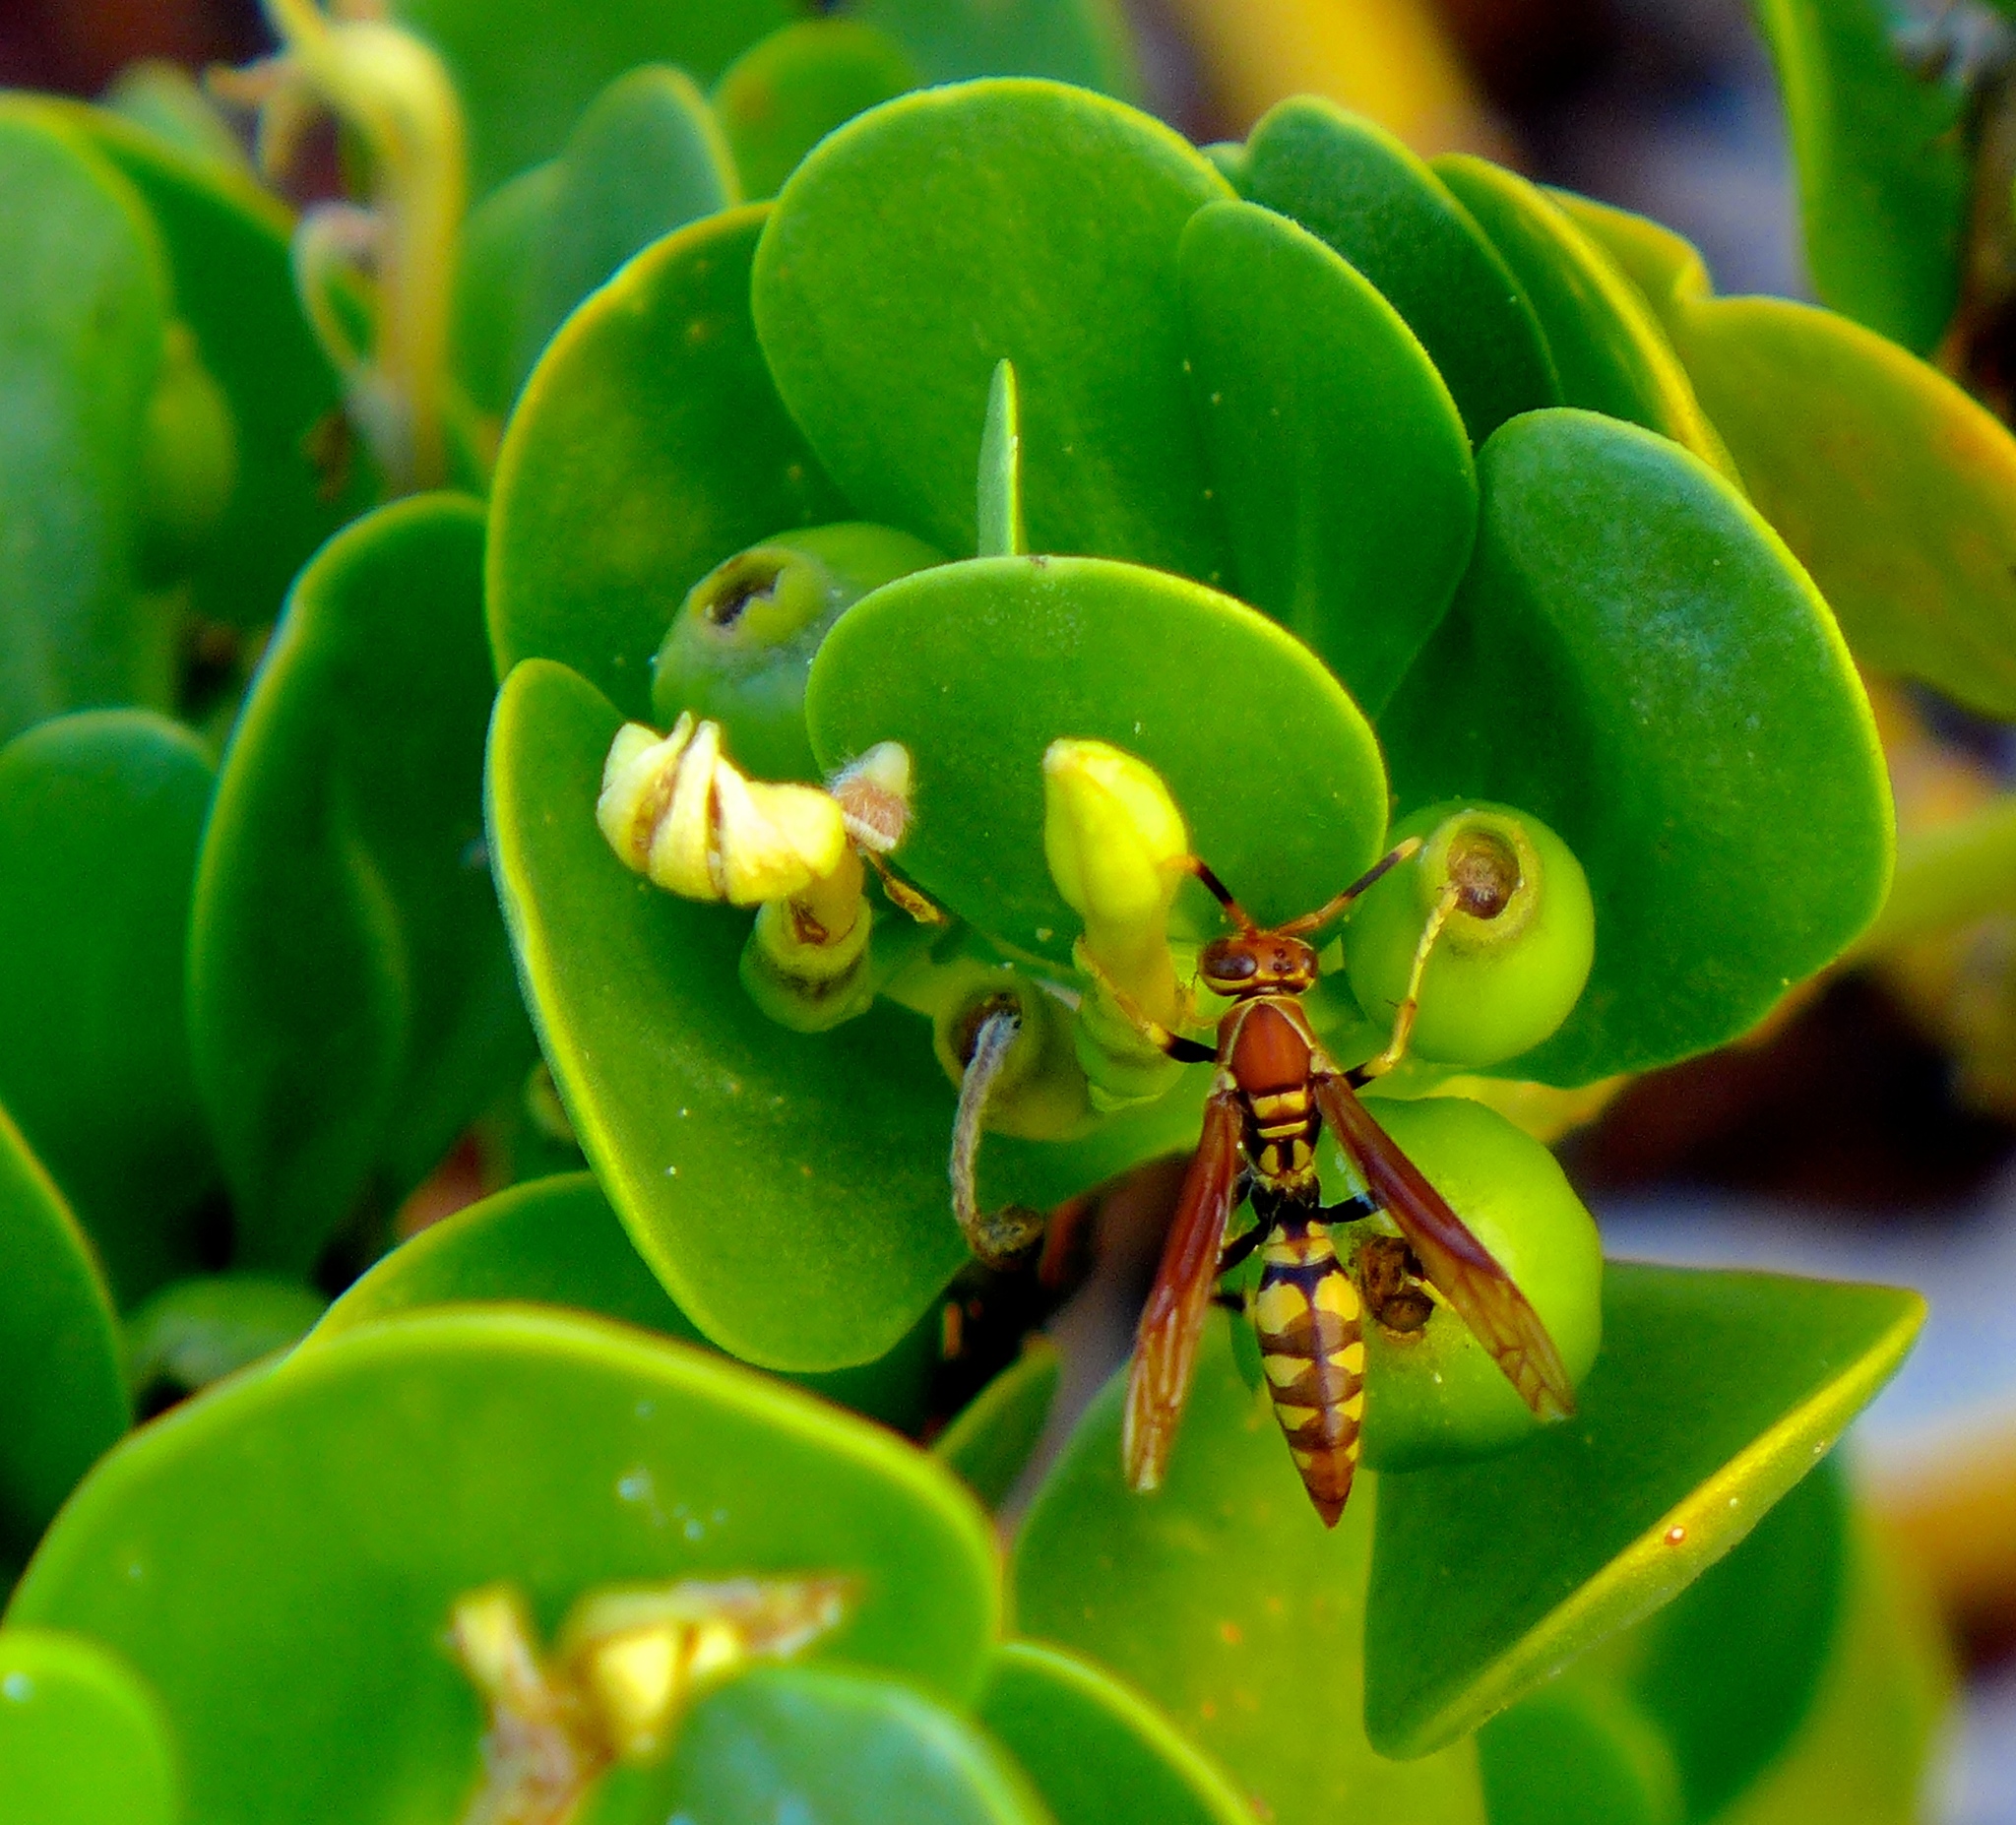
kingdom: Animalia
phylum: Arthropoda
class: Insecta
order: Hymenoptera
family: Eumenidae
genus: Polistes
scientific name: Polistes versicolor
